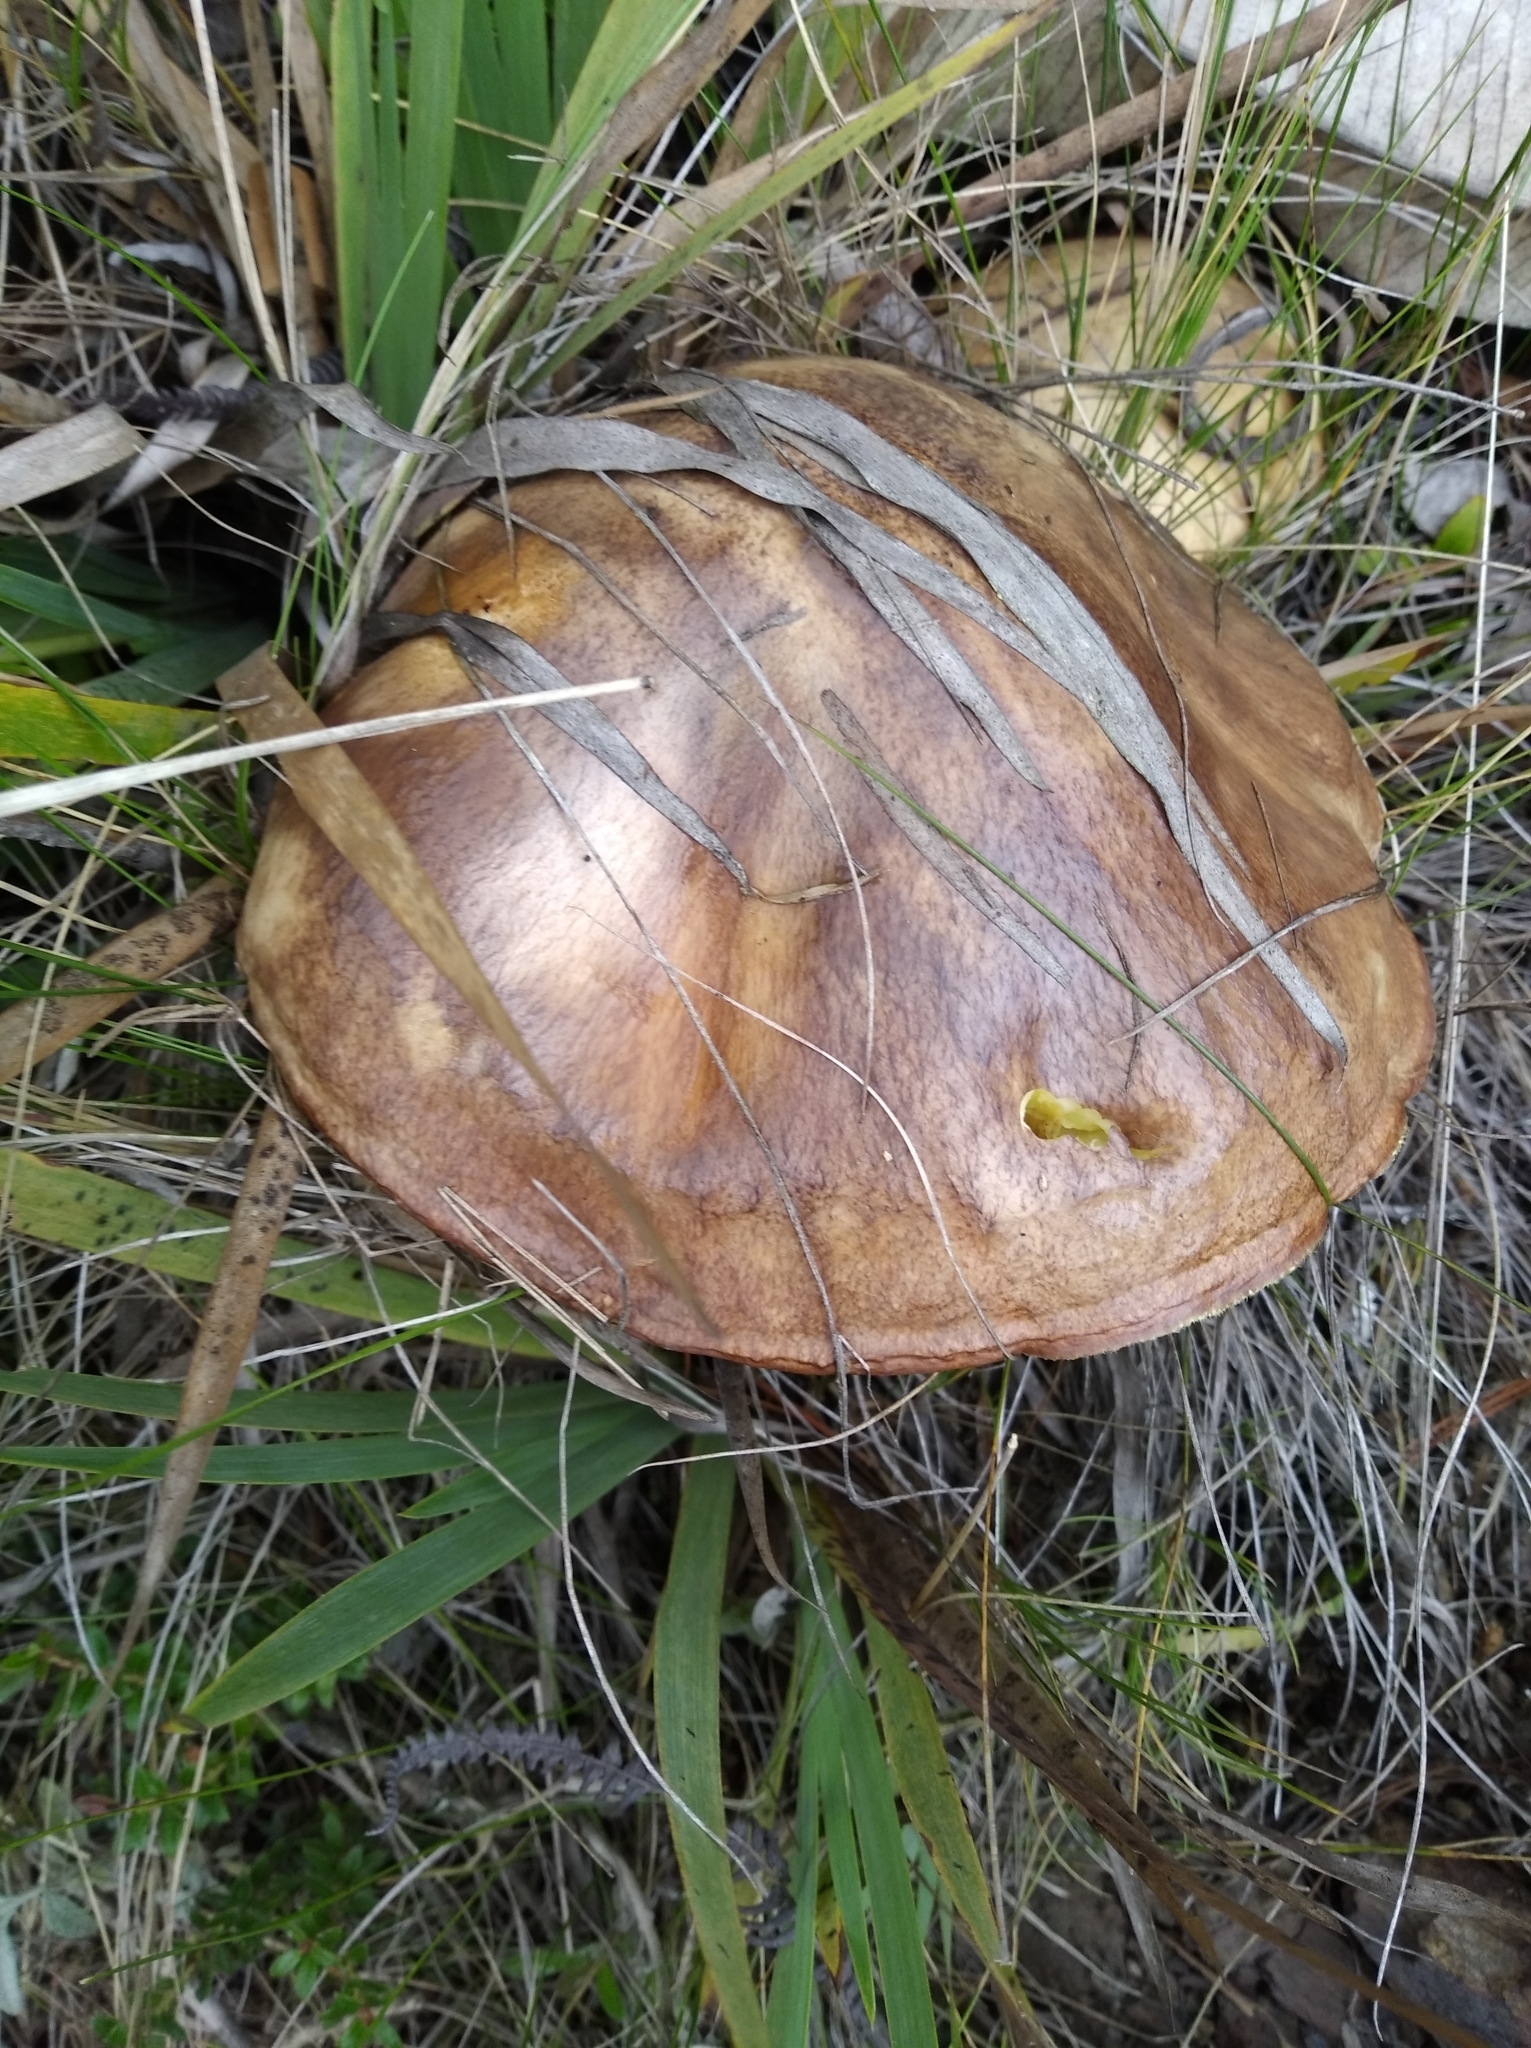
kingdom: Fungi
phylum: Basidiomycota
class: Agaricomycetes
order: Boletales
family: Suillaceae
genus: Suillus
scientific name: Suillus luteus
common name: Slippery jack
